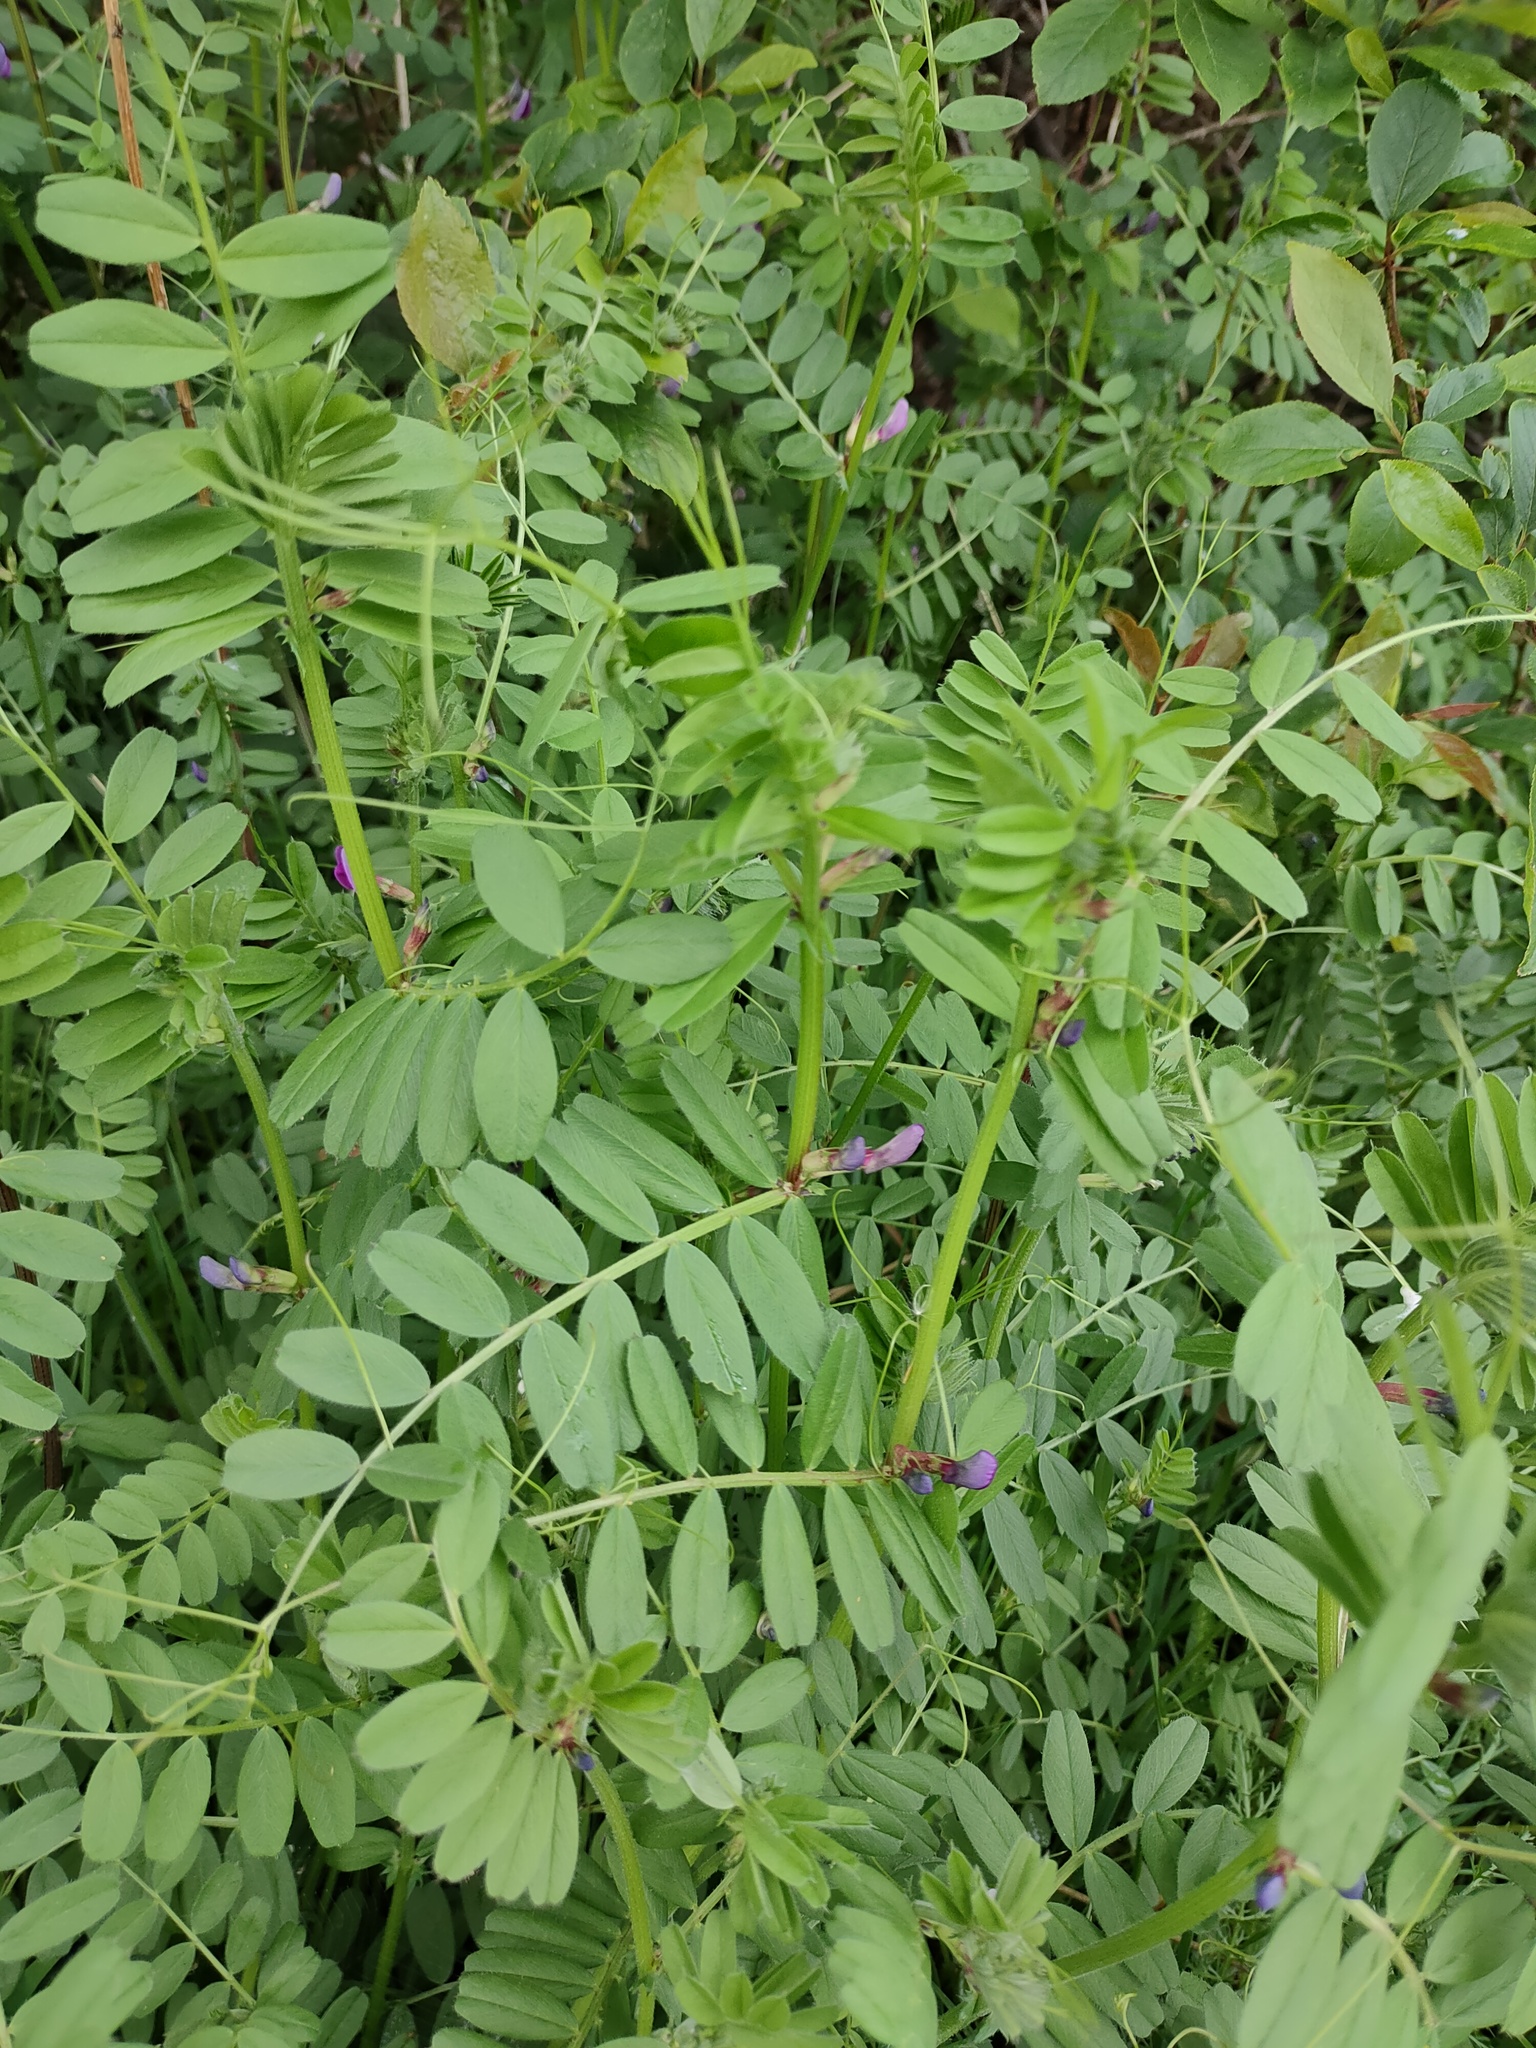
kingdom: Plantae
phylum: Tracheophyta
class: Magnoliopsida
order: Fabales
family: Fabaceae
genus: Vicia
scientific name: Vicia sativa
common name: Garden vetch
